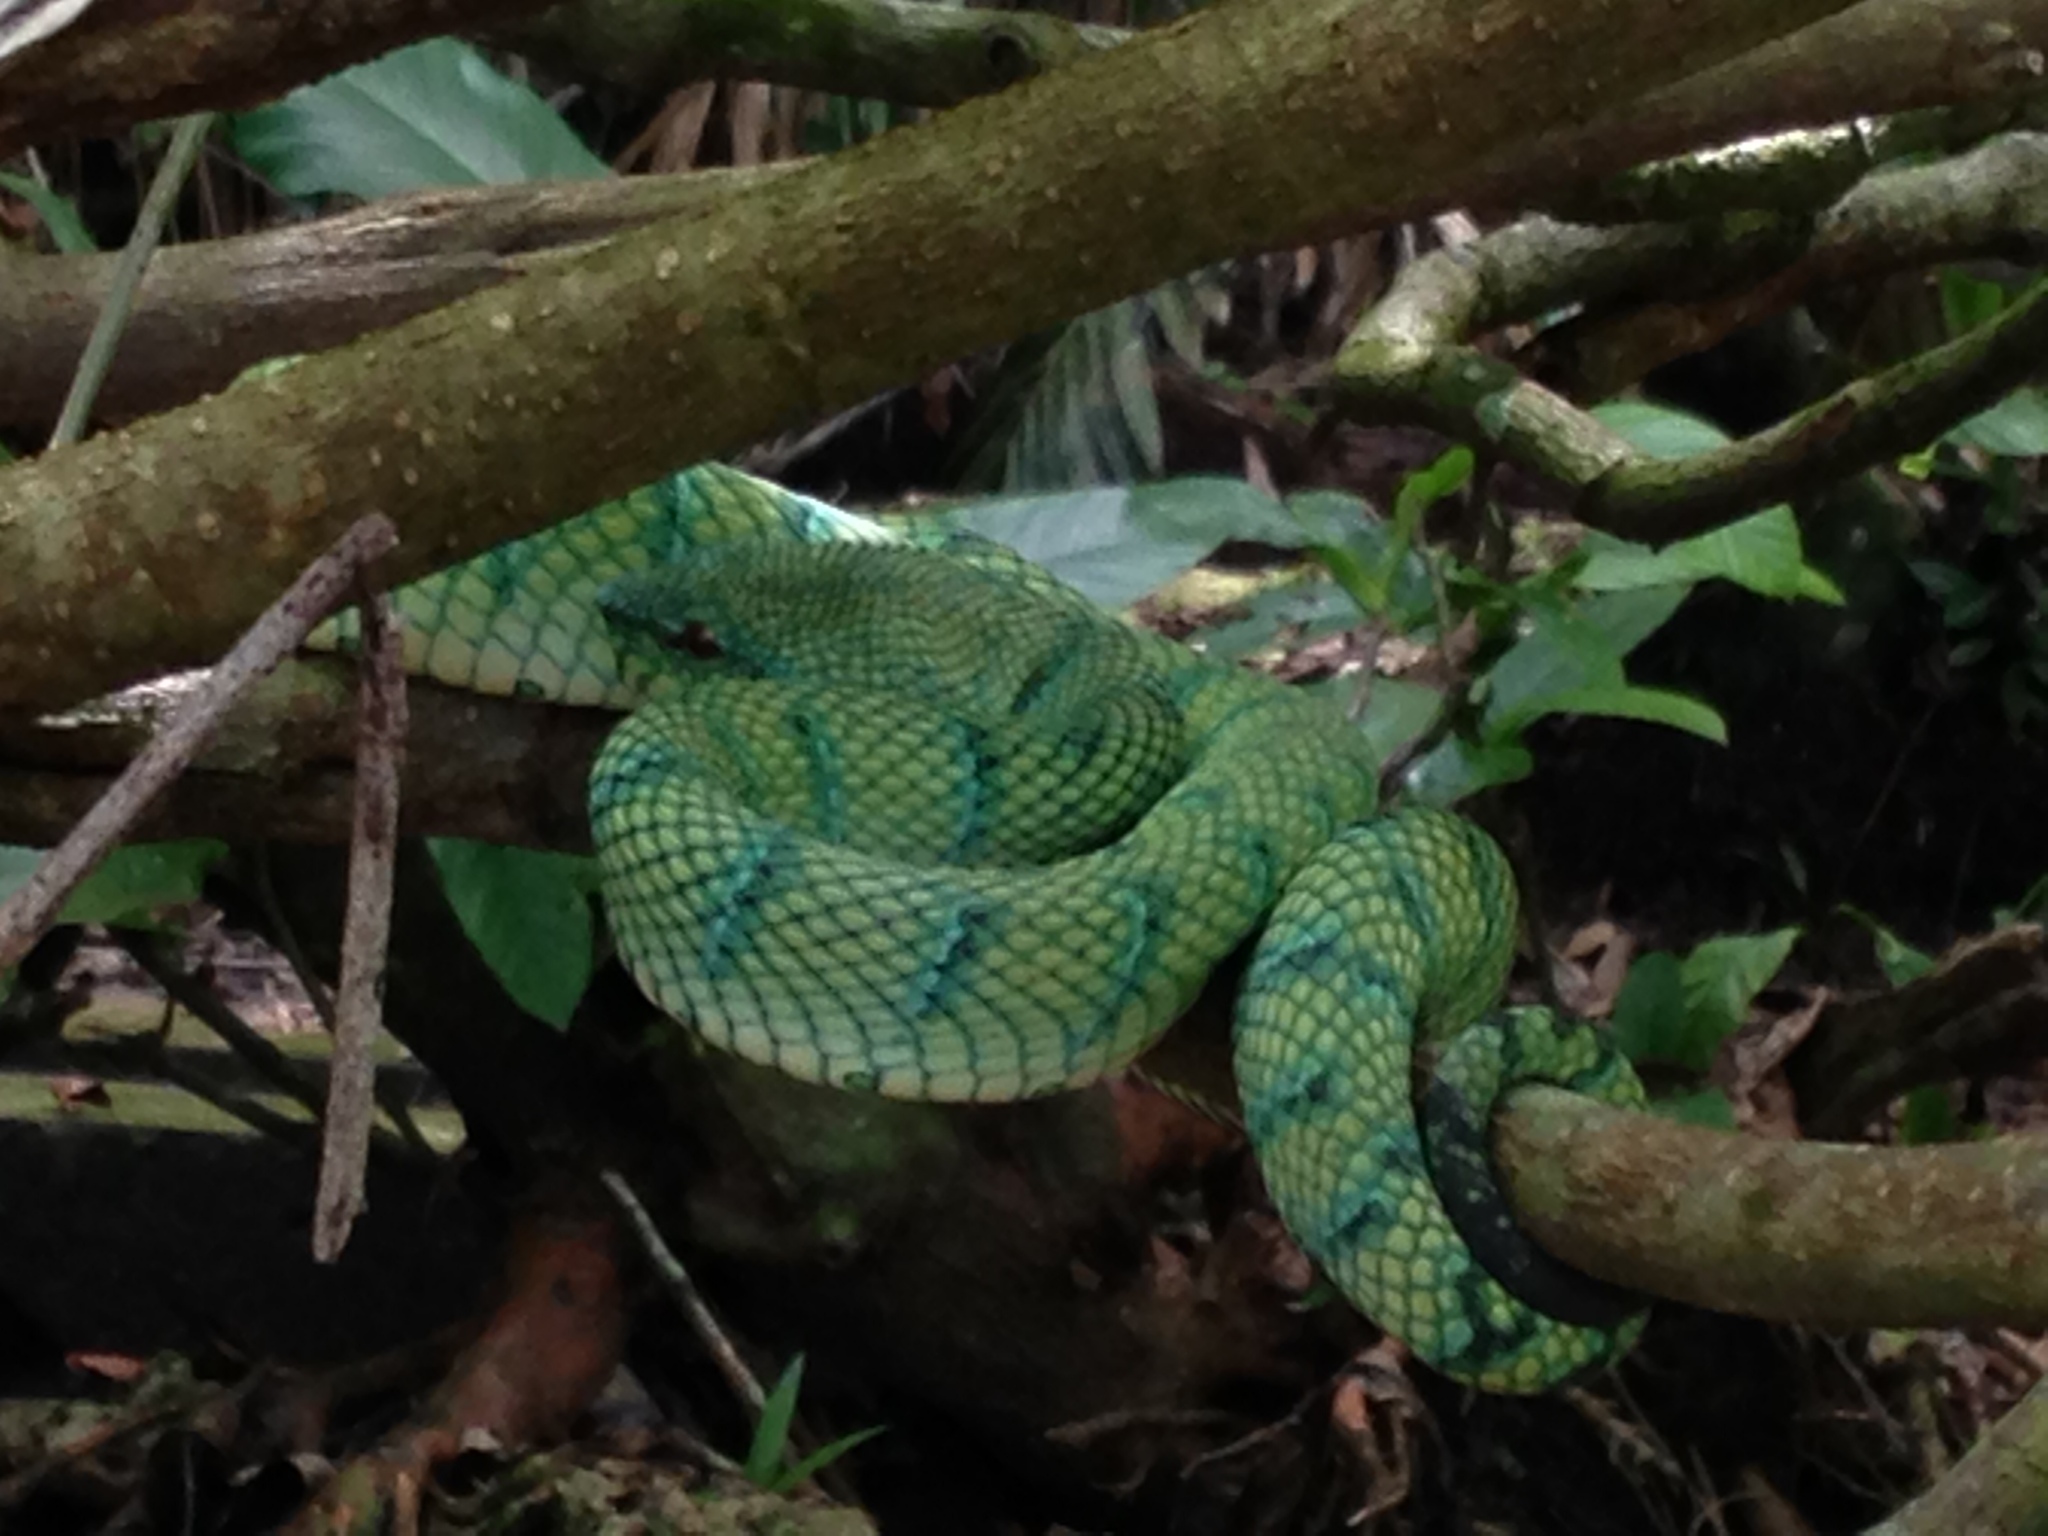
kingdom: Animalia
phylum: Chordata
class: Squamata
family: Viperidae
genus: Tropidolaemus
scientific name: Tropidolaemus subannulatus
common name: North philippine temple pitviper
